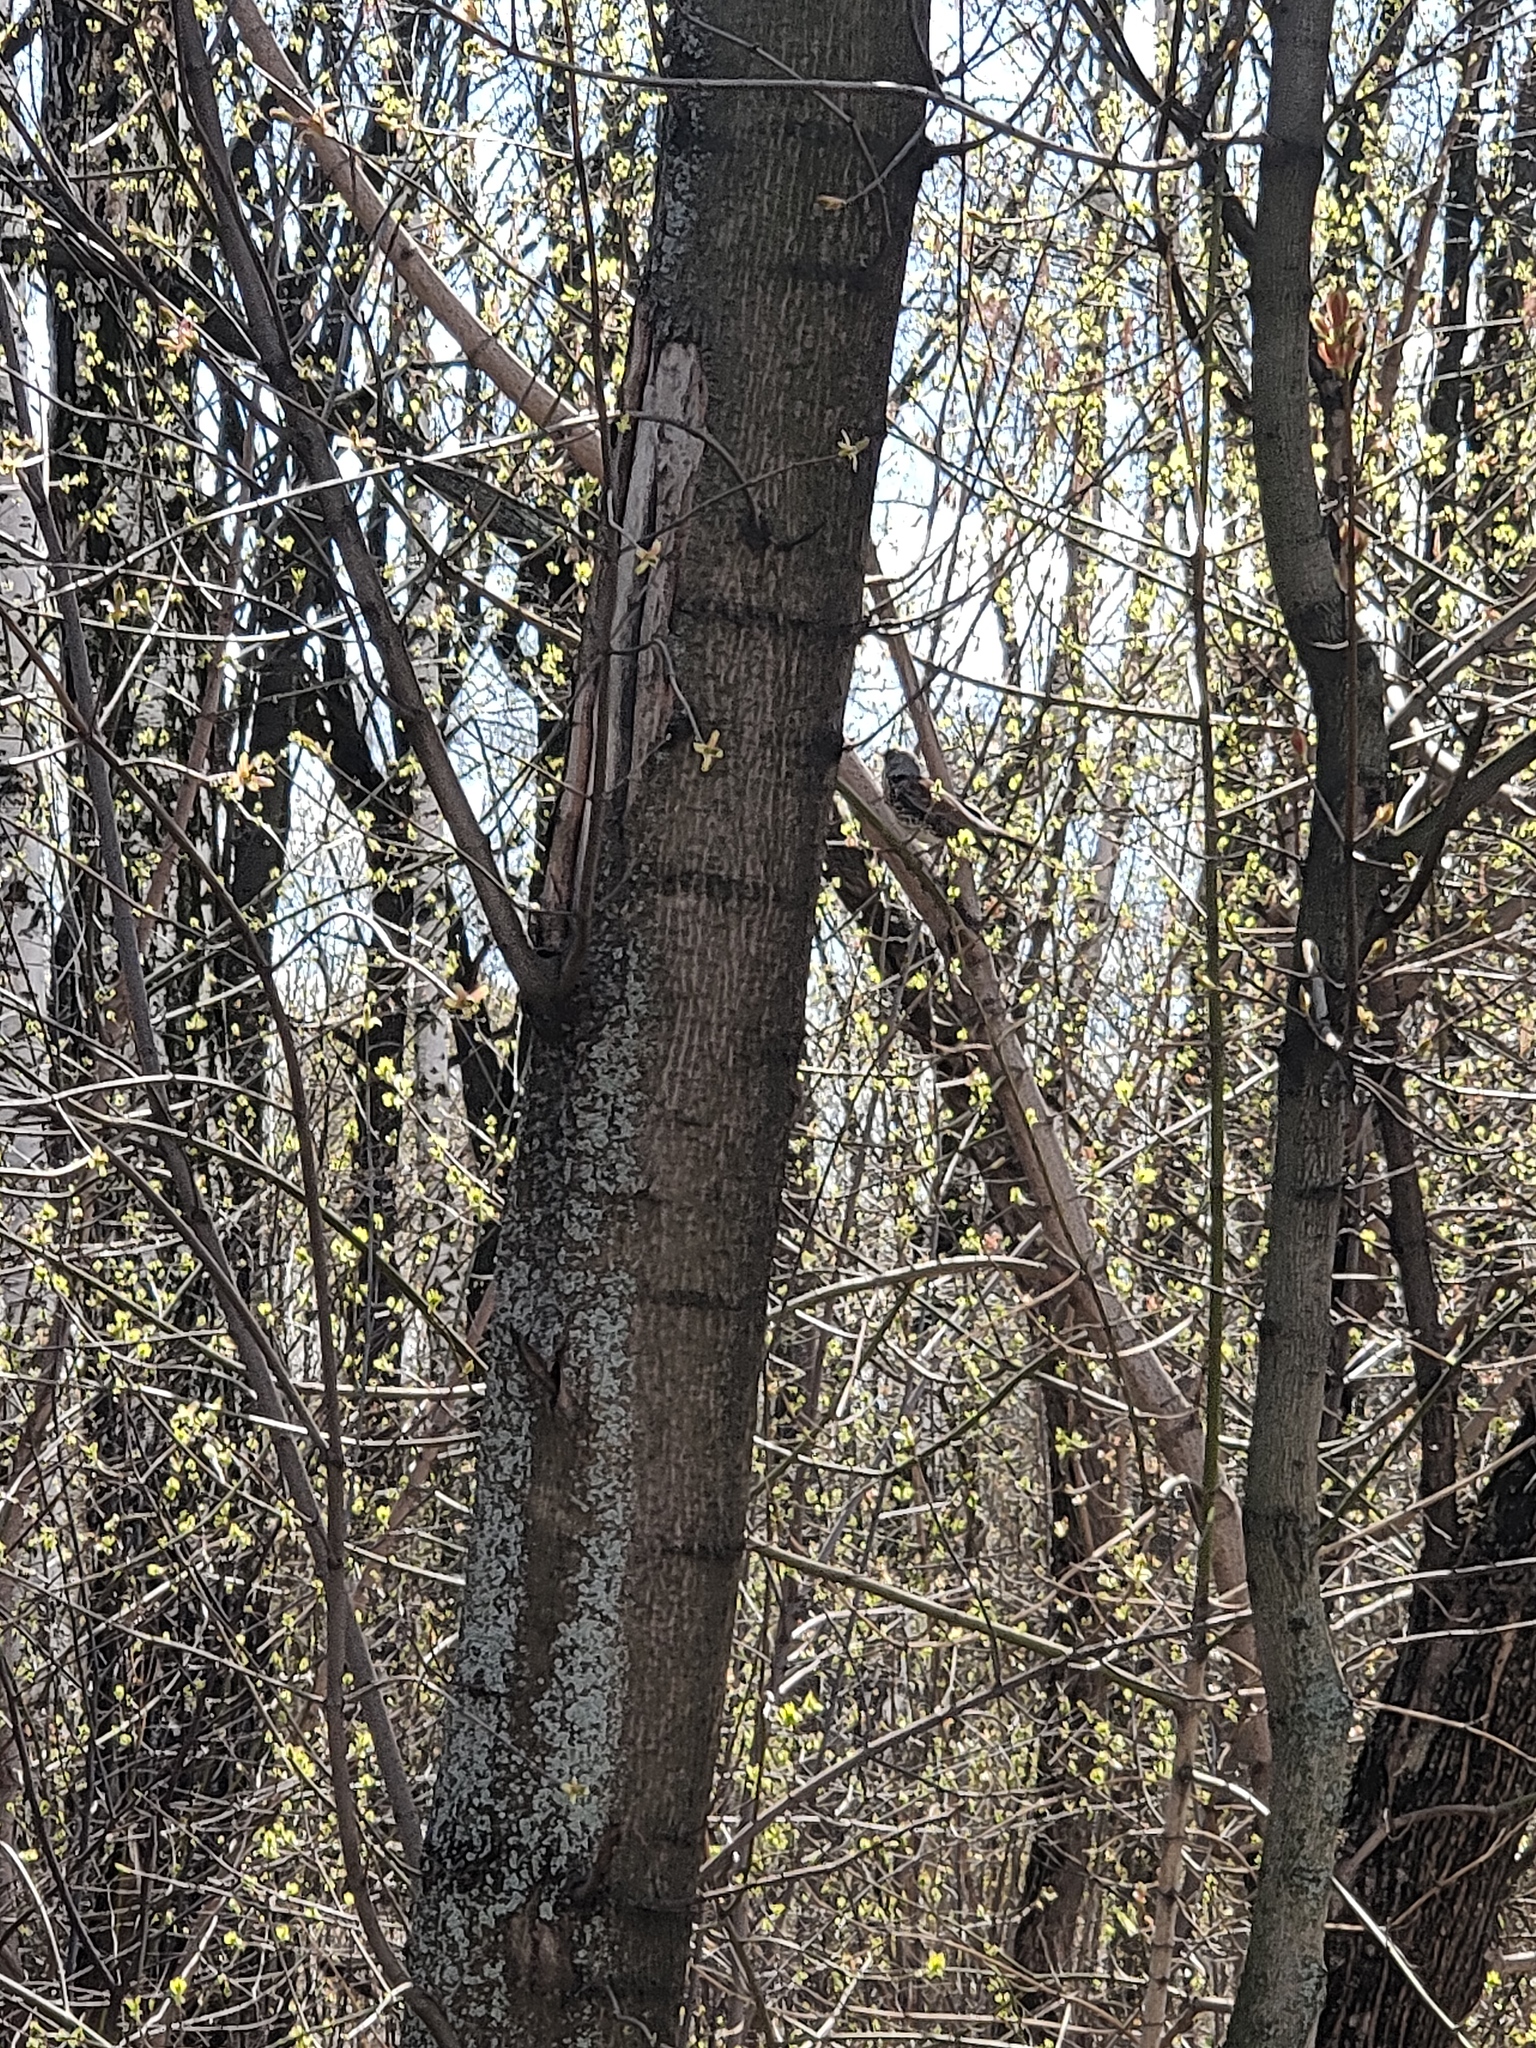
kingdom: Animalia
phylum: Chordata
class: Aves
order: Passeriformes
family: Turdidae
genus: Turdus
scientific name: Turdus pilaris
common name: Fieldfare
